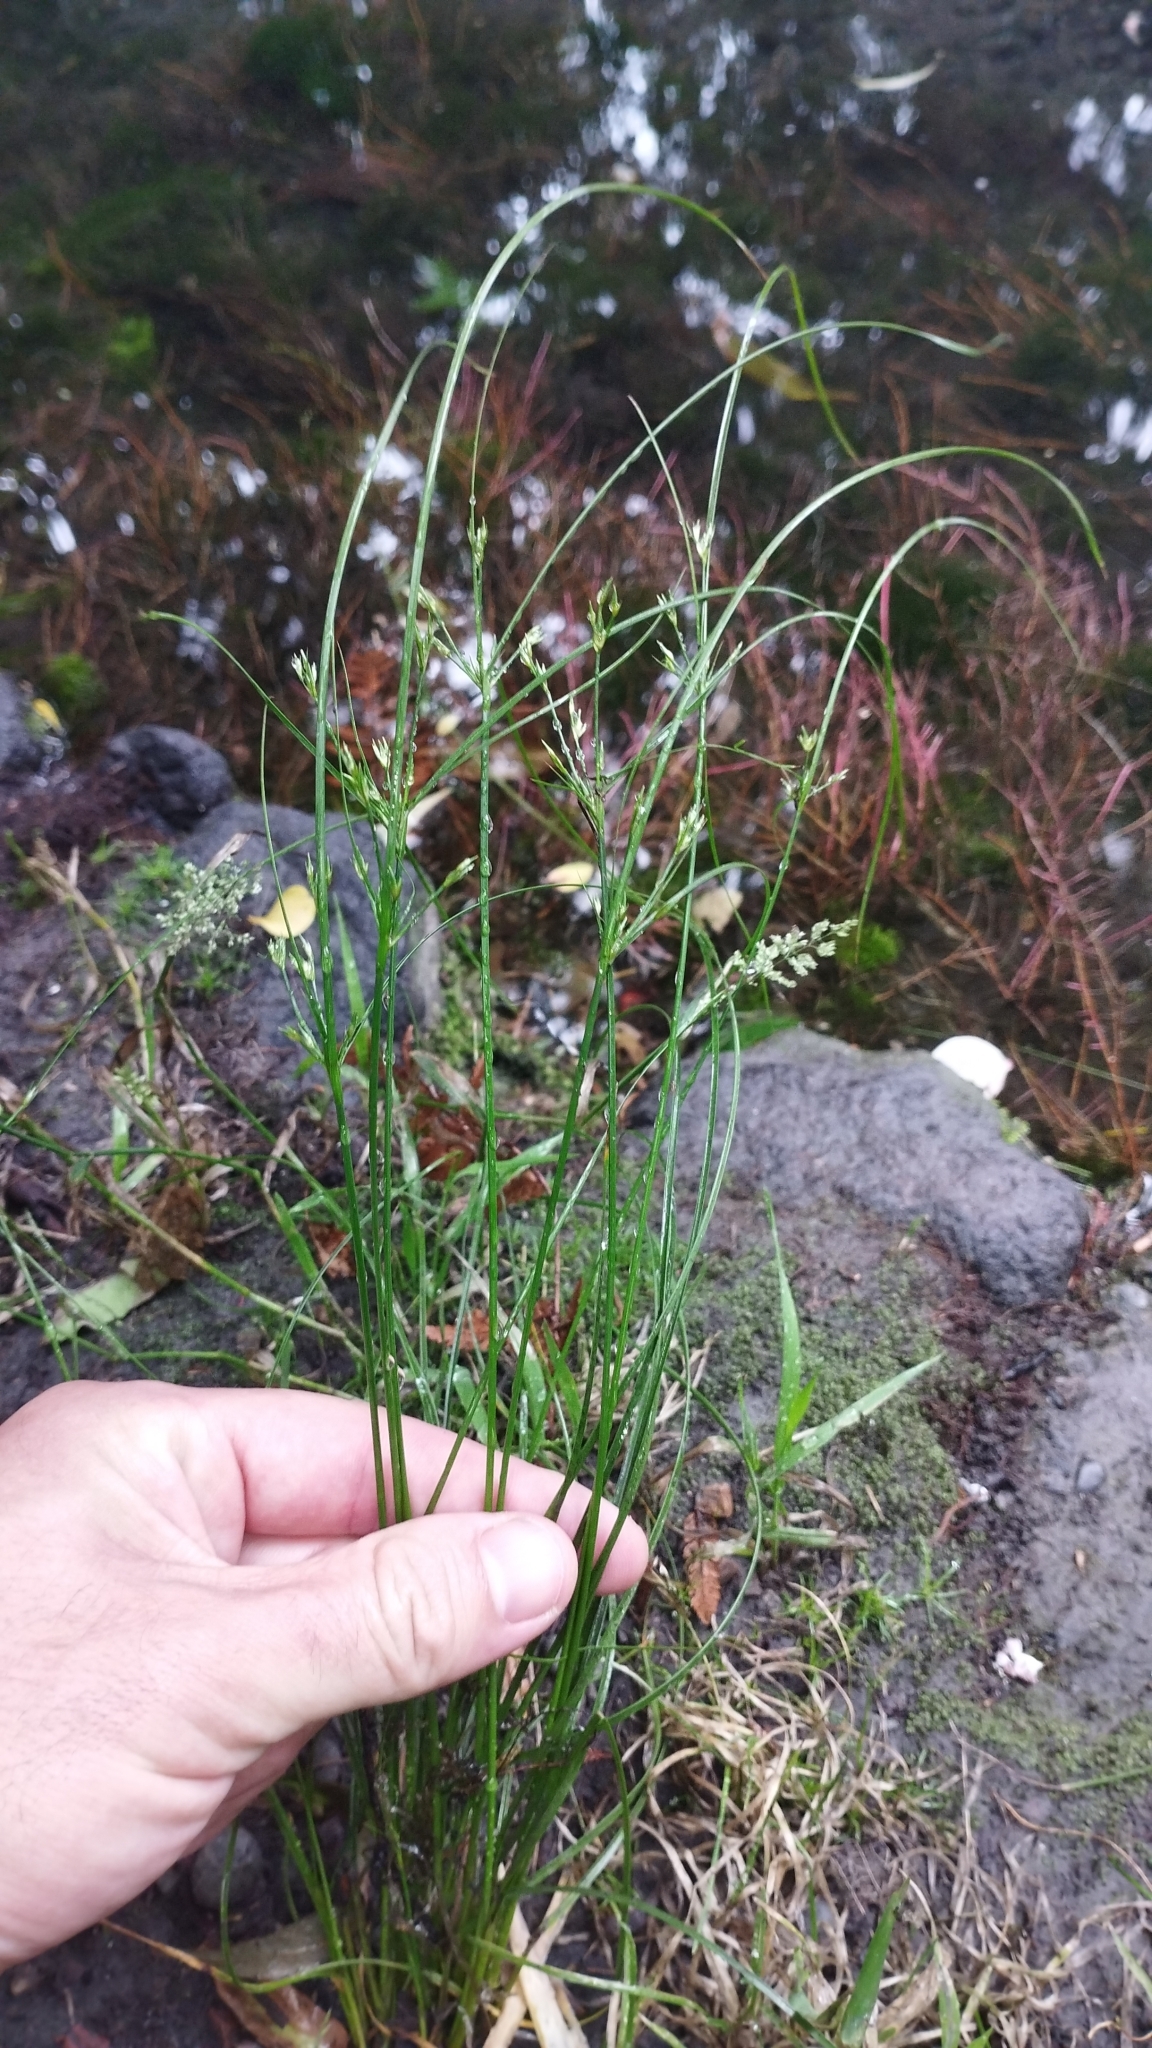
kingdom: Plantae
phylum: Tracheophyta
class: Liliopsida
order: Poales
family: Juncaceae
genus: Juncus
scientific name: Juncus tenuis
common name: Slender rush
